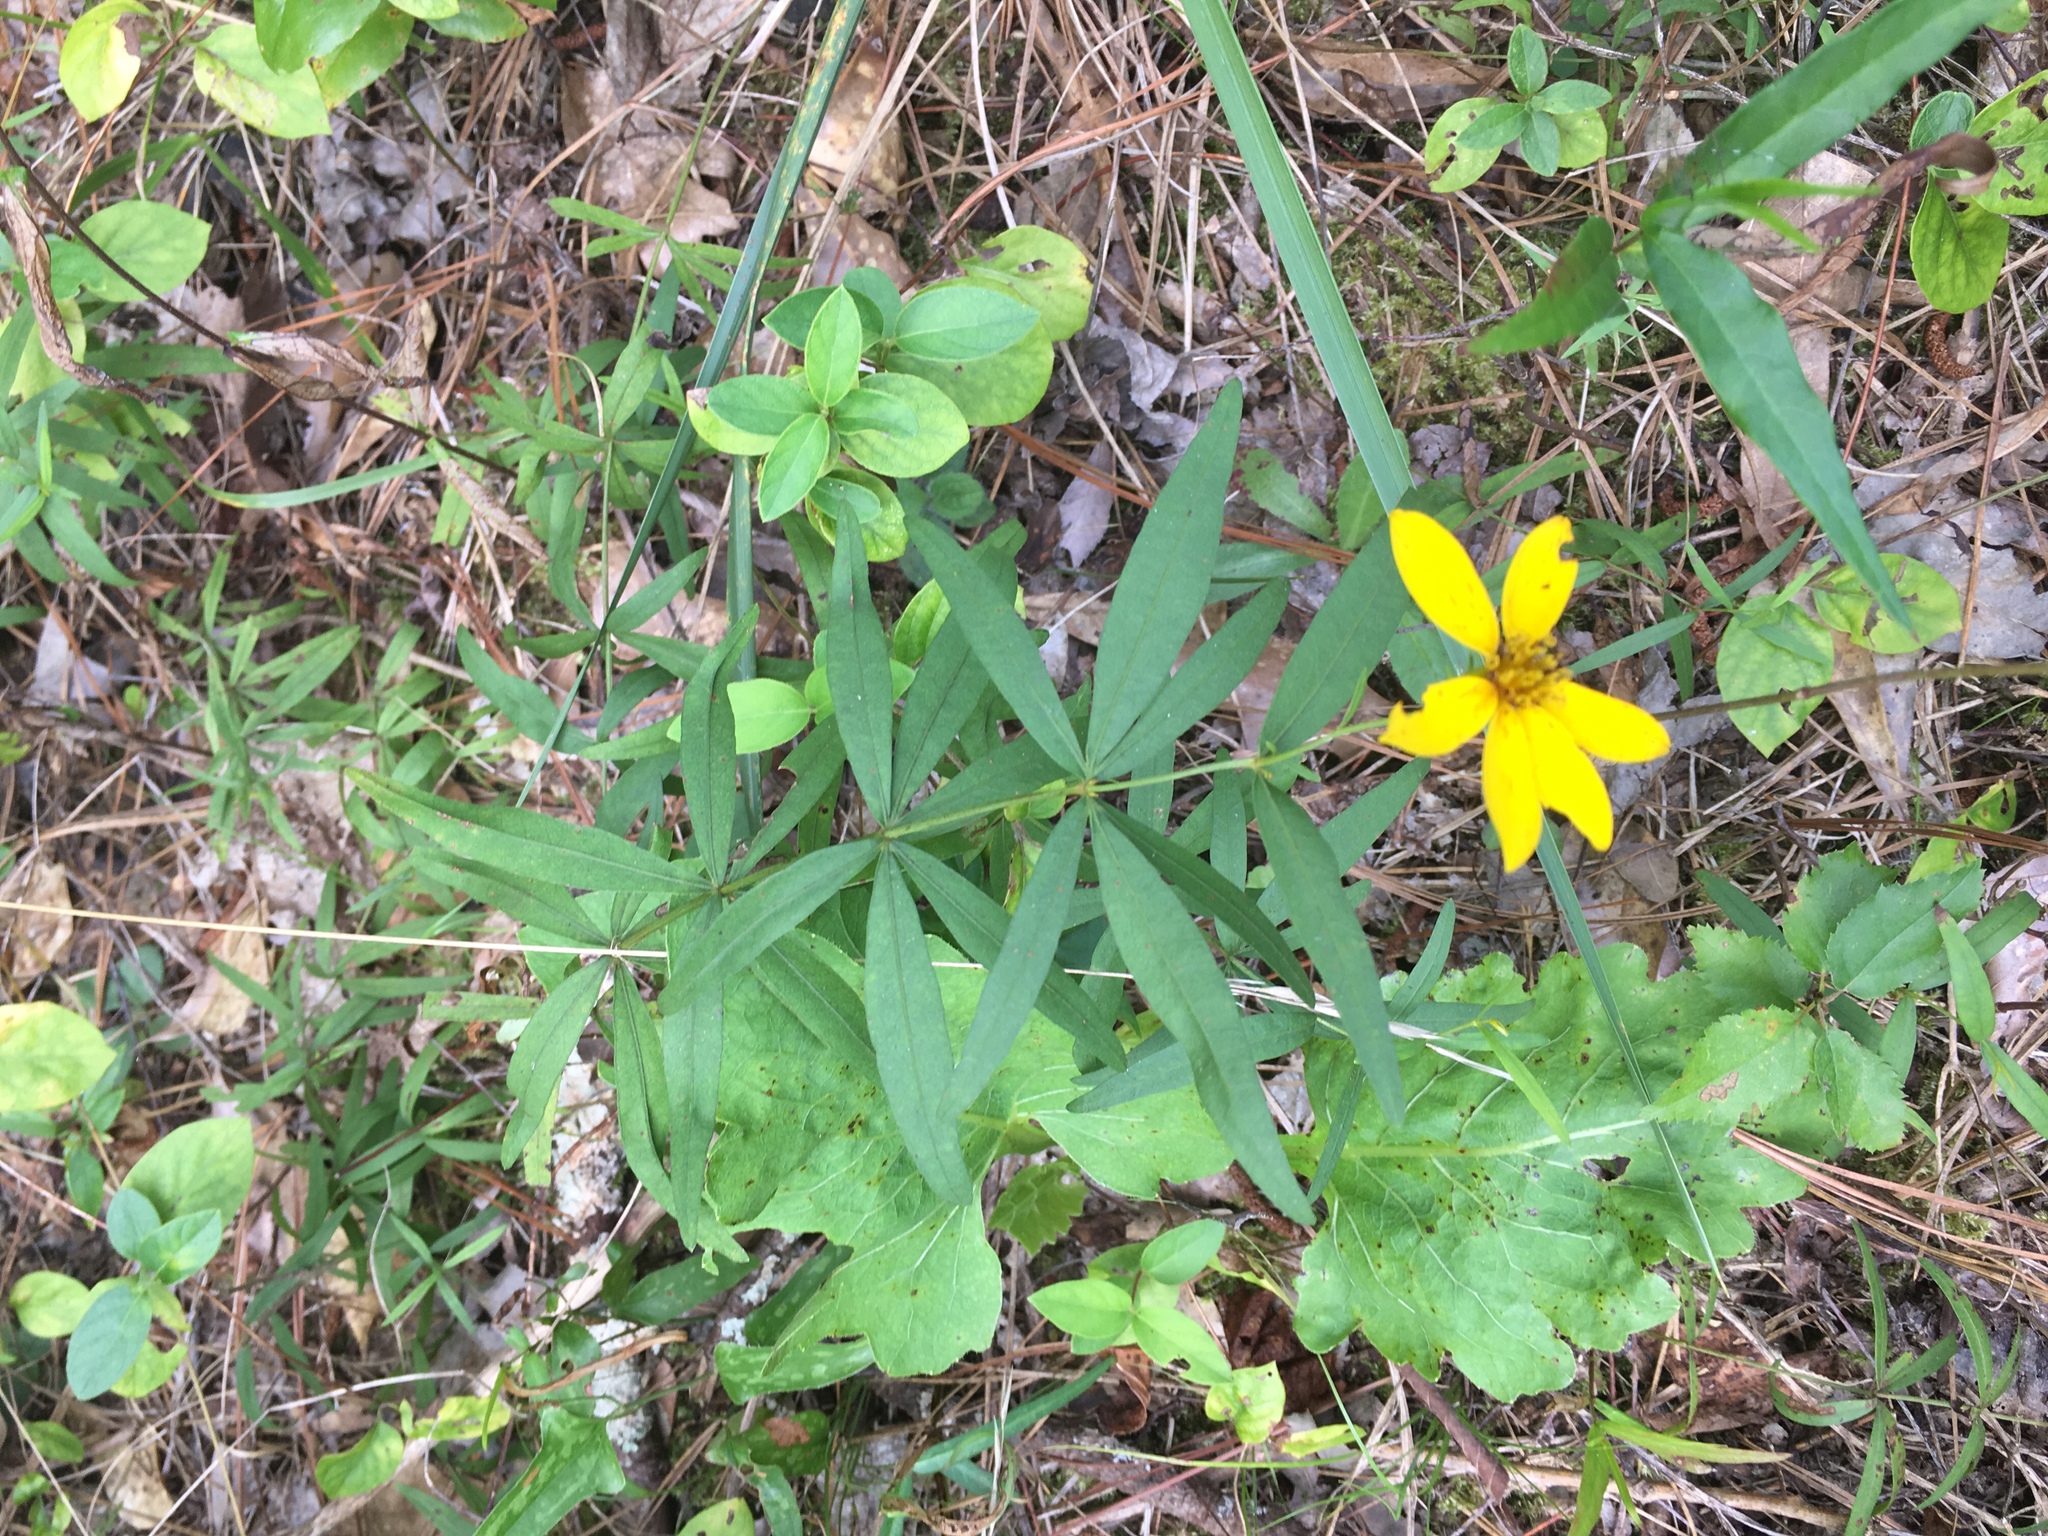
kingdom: Plantae
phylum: Tracheophyta
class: Magnoliopsida
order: Asterales
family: Asteraceae
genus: Coreopsis
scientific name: Coreopsis major
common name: Forest tickseed
